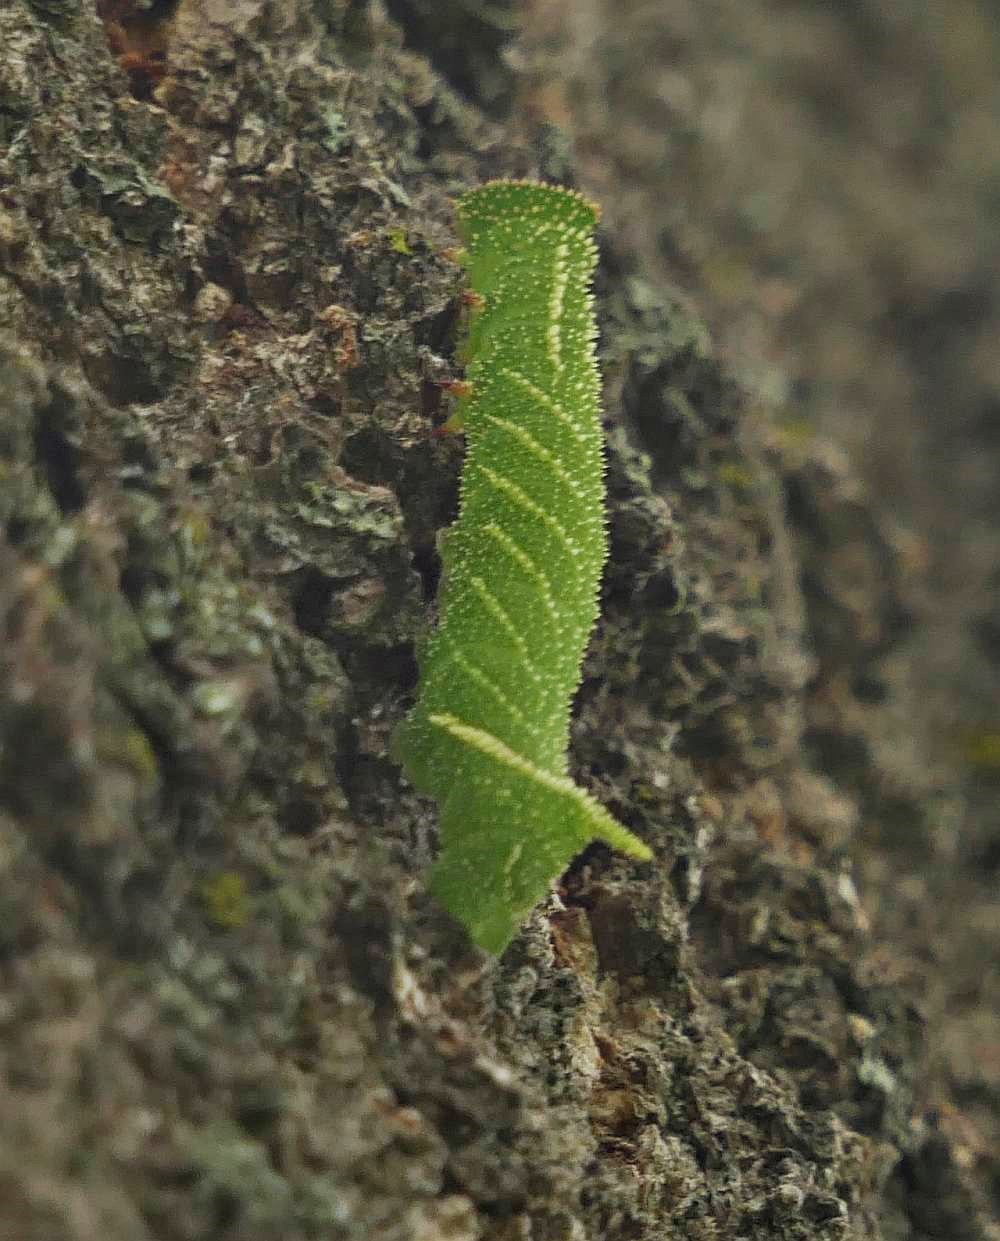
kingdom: Animalia
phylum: Arthropoda
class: Insecta
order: Lepidoptera
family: Sphingidae
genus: Paonias
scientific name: Paonias excaecata
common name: Blind-eyed sphinx
